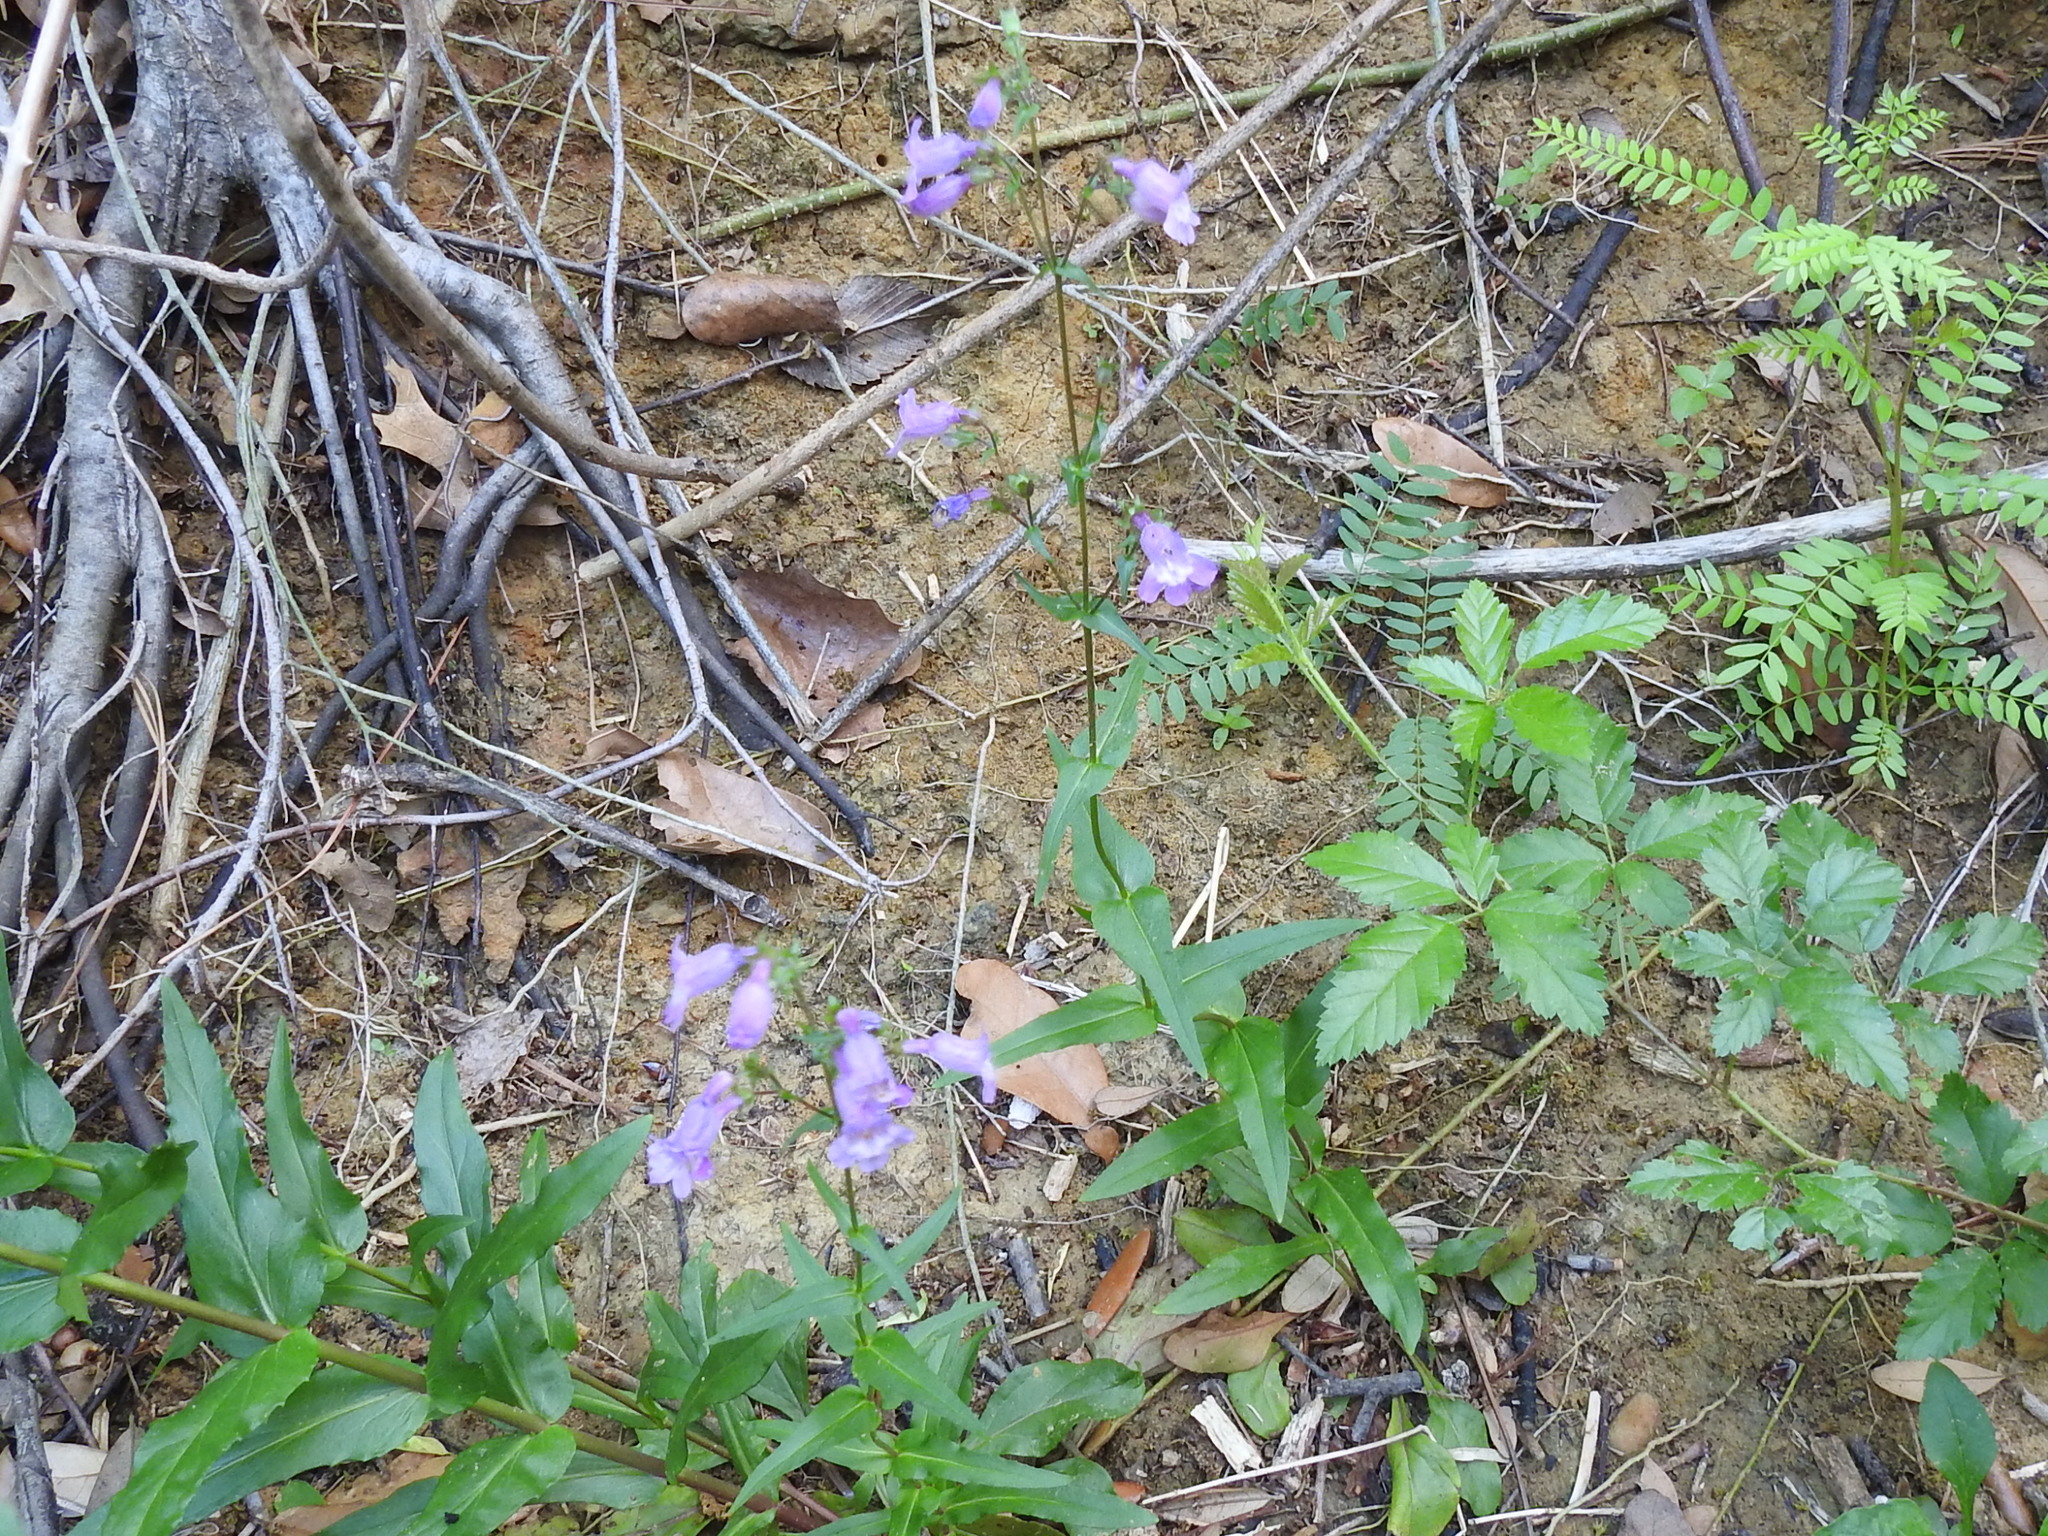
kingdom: Plantae
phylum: Tracheophyta
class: Magnoliopsida
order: Lamiales
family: Plantaginaceae
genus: Penstemon
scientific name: Penstemon tenuis
